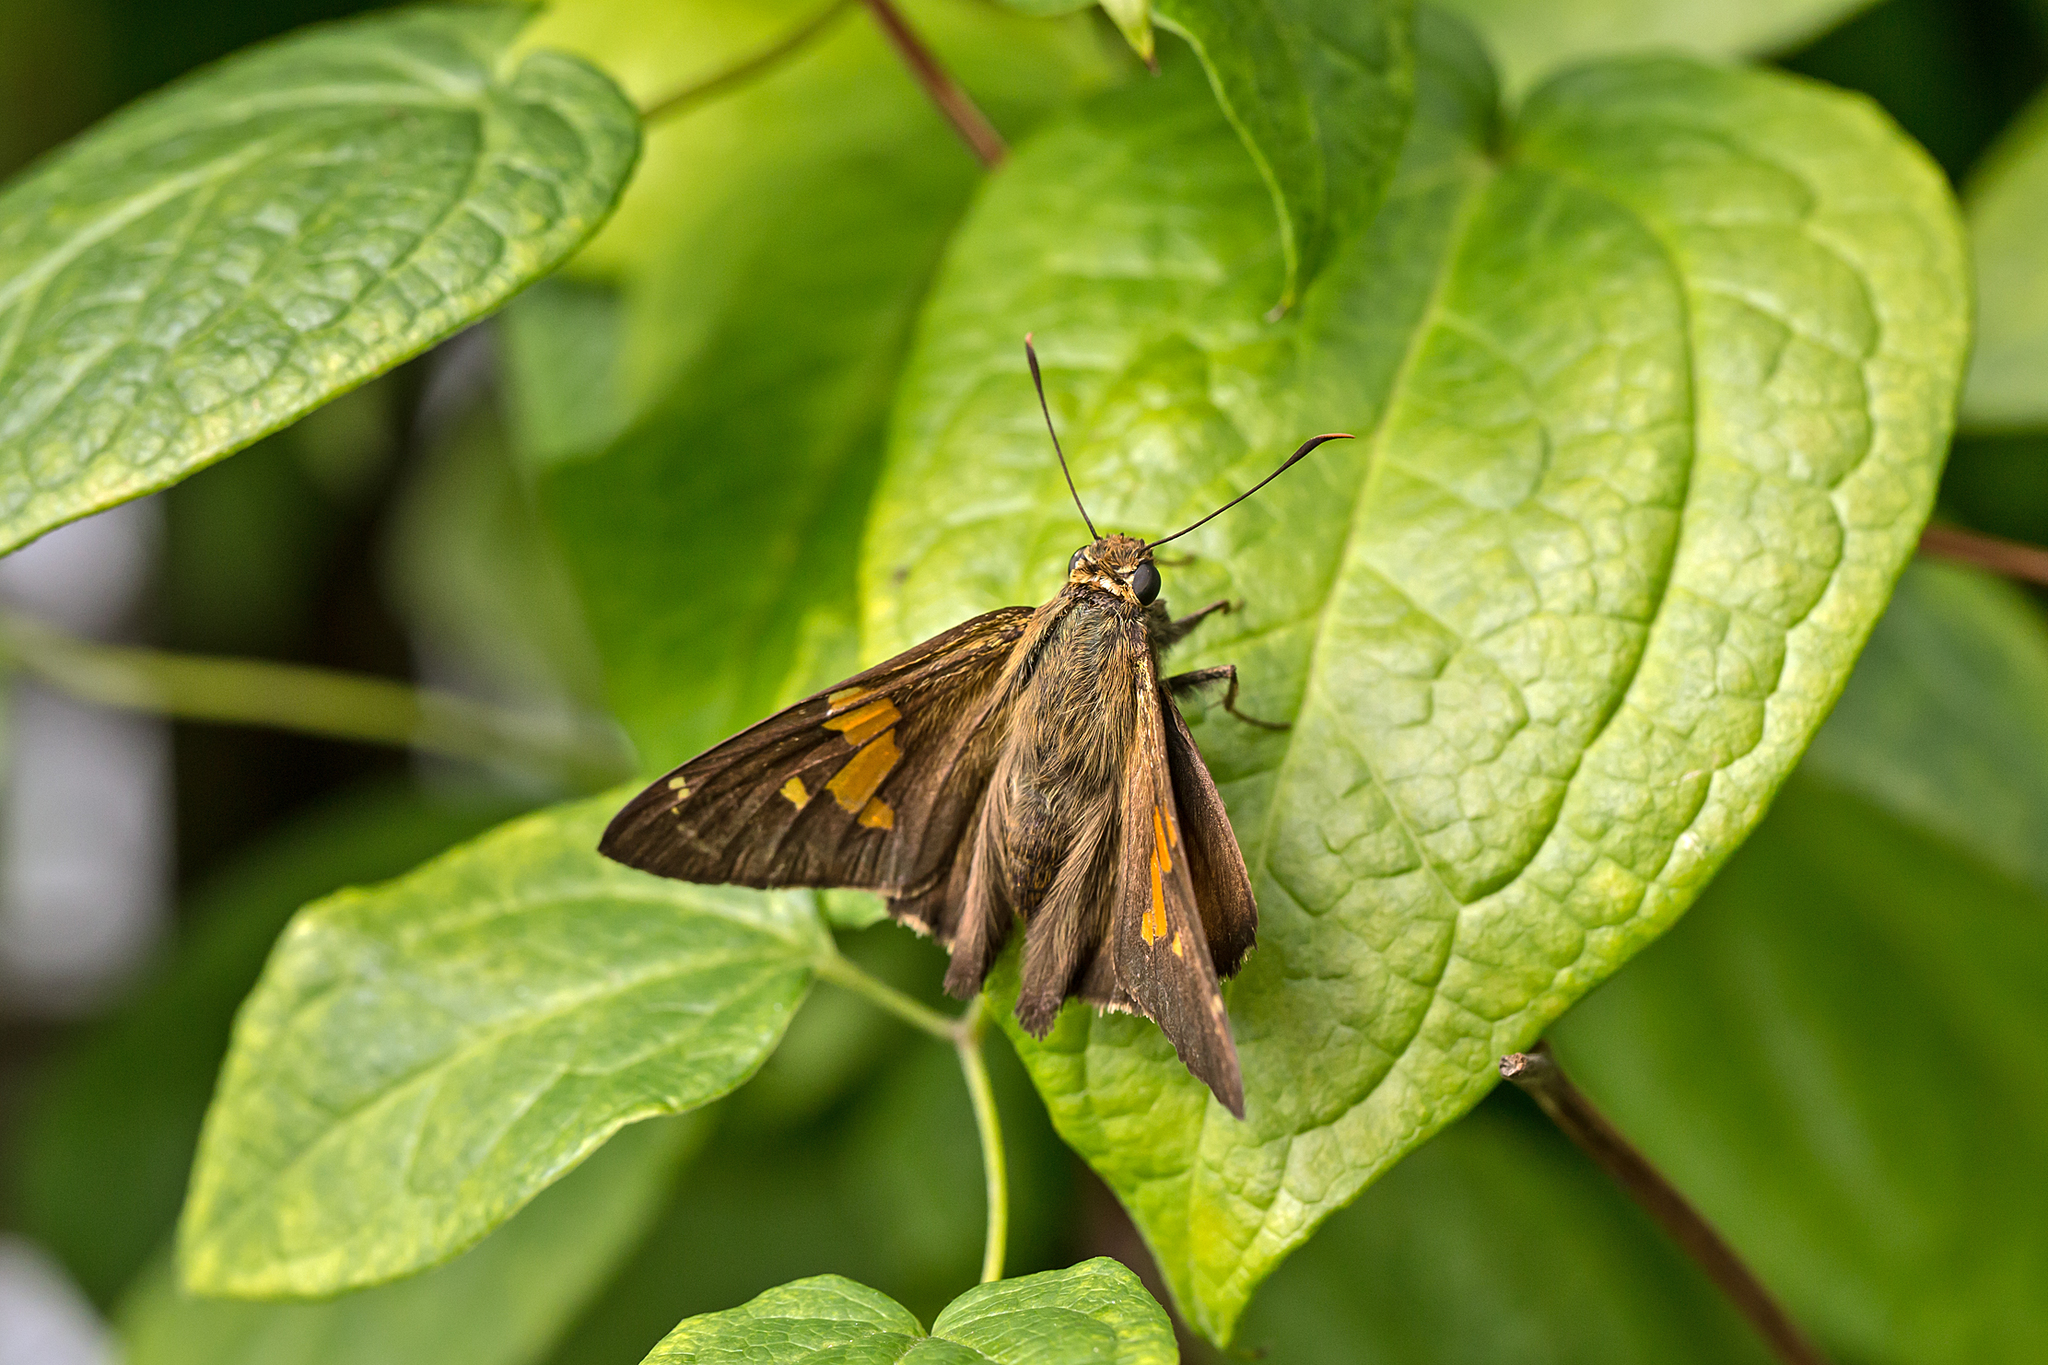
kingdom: Animalia
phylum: Arthropoda
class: Insecta
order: Lepidoptera
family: Hesperiidae
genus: Epargyreus
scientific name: Epargyreus clarus
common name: Silver-spotted skipper
